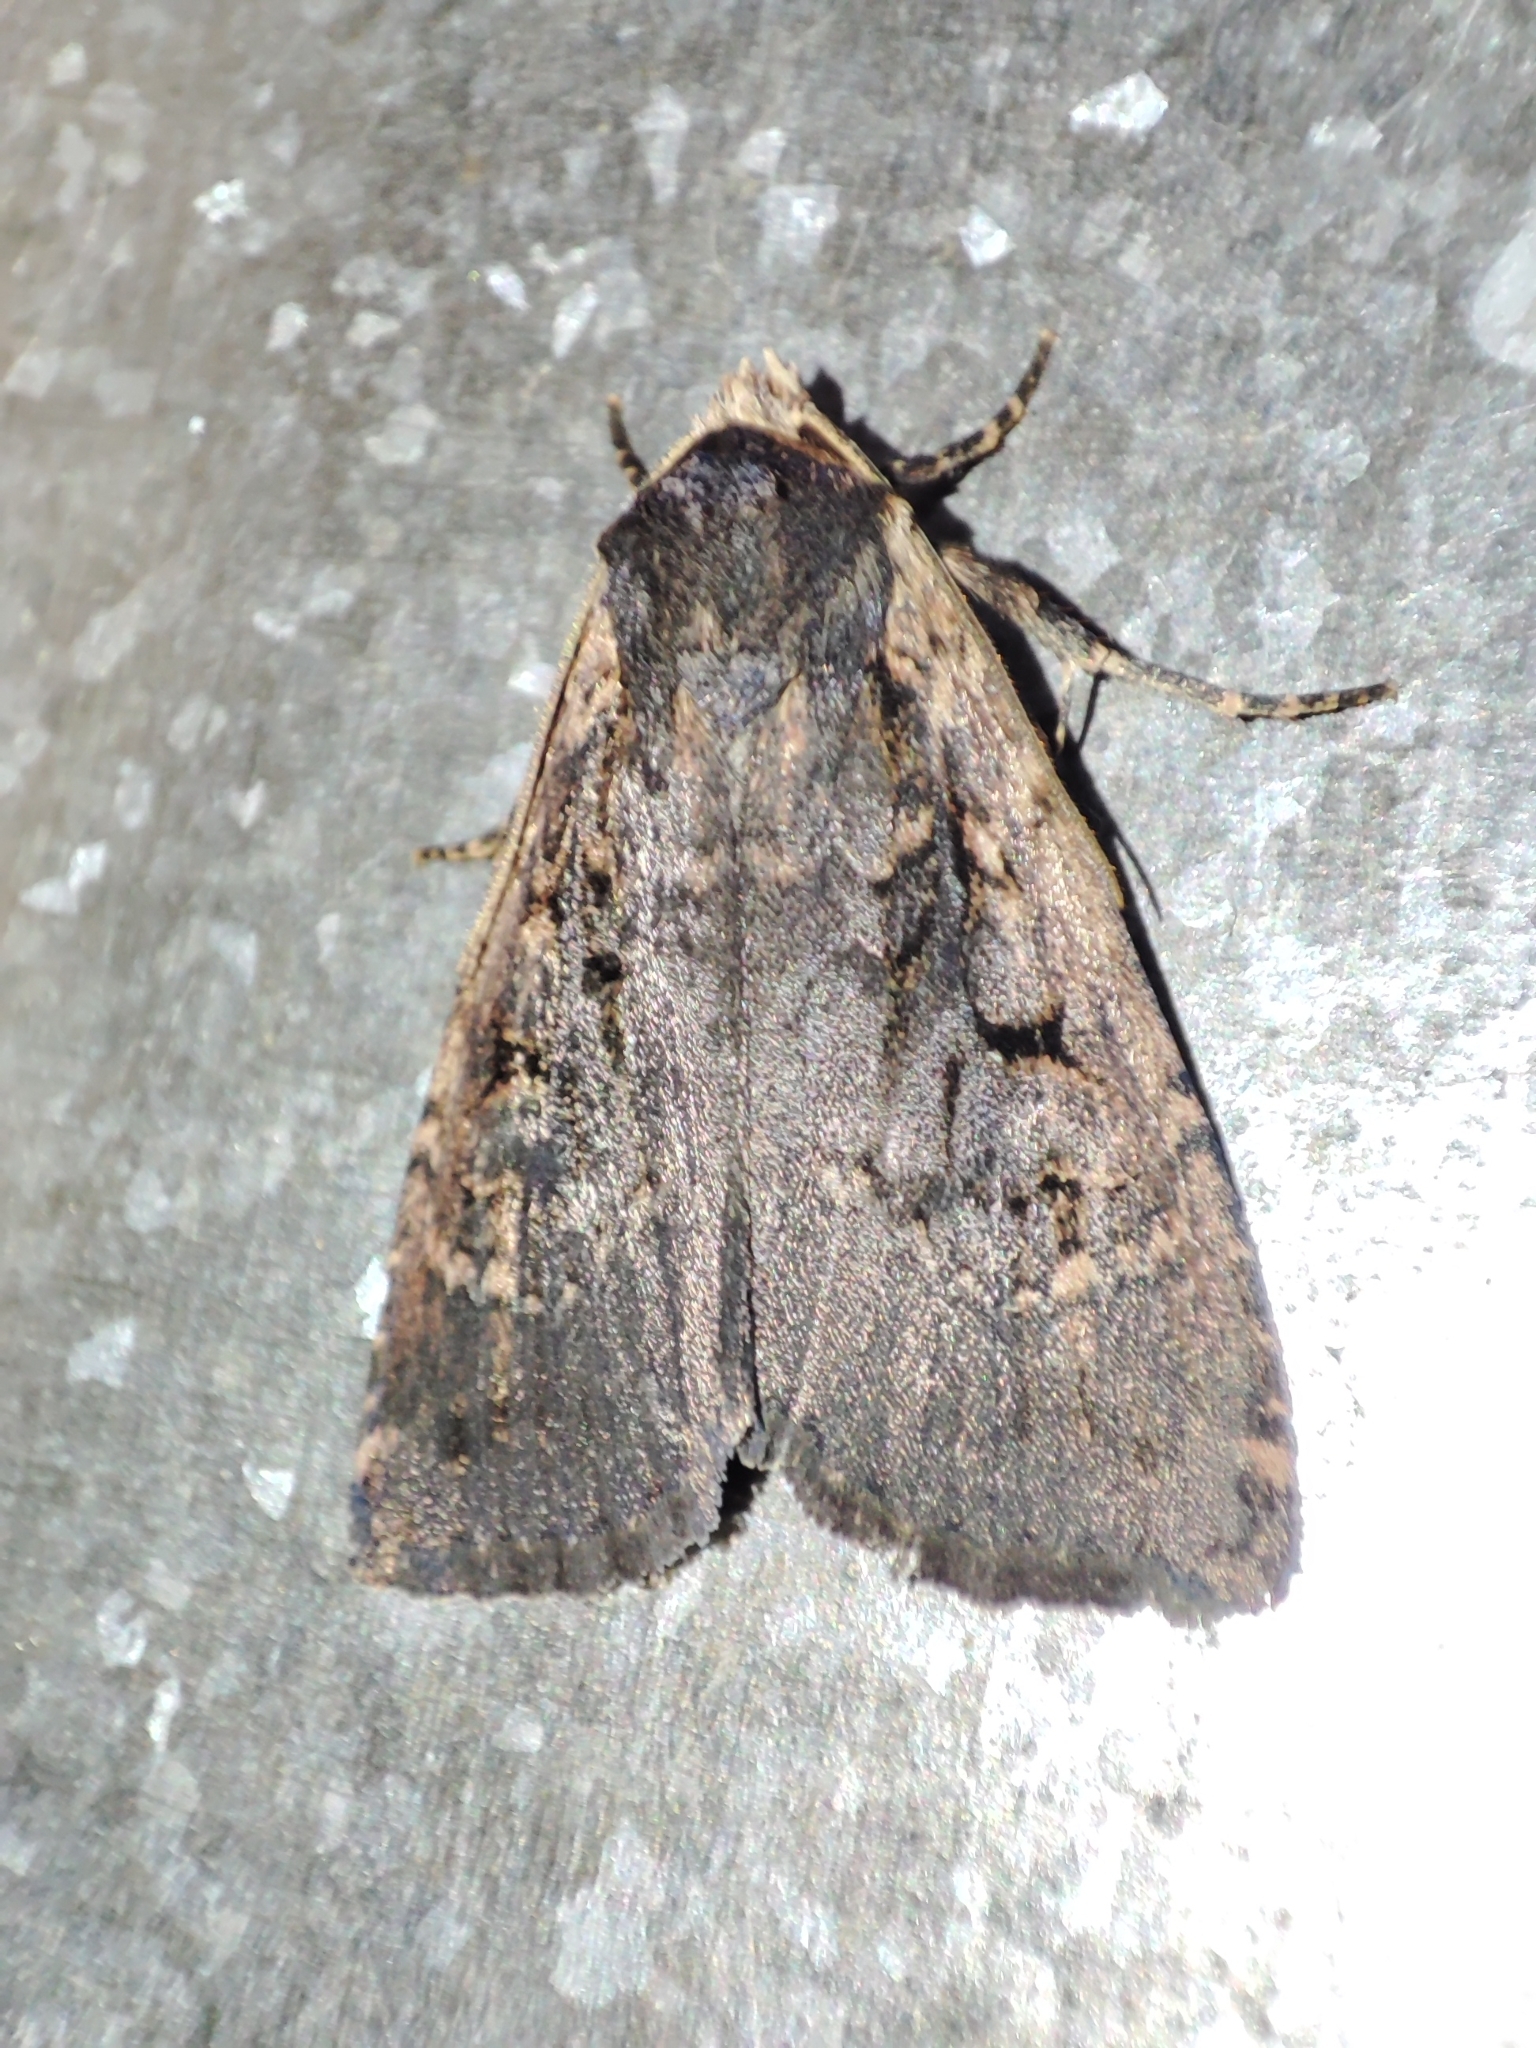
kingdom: Animalia
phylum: Arthropoda
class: Insecta
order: Lepidoptera
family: Noctuidae
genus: Eugraphe
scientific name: Eugraphe sigma
